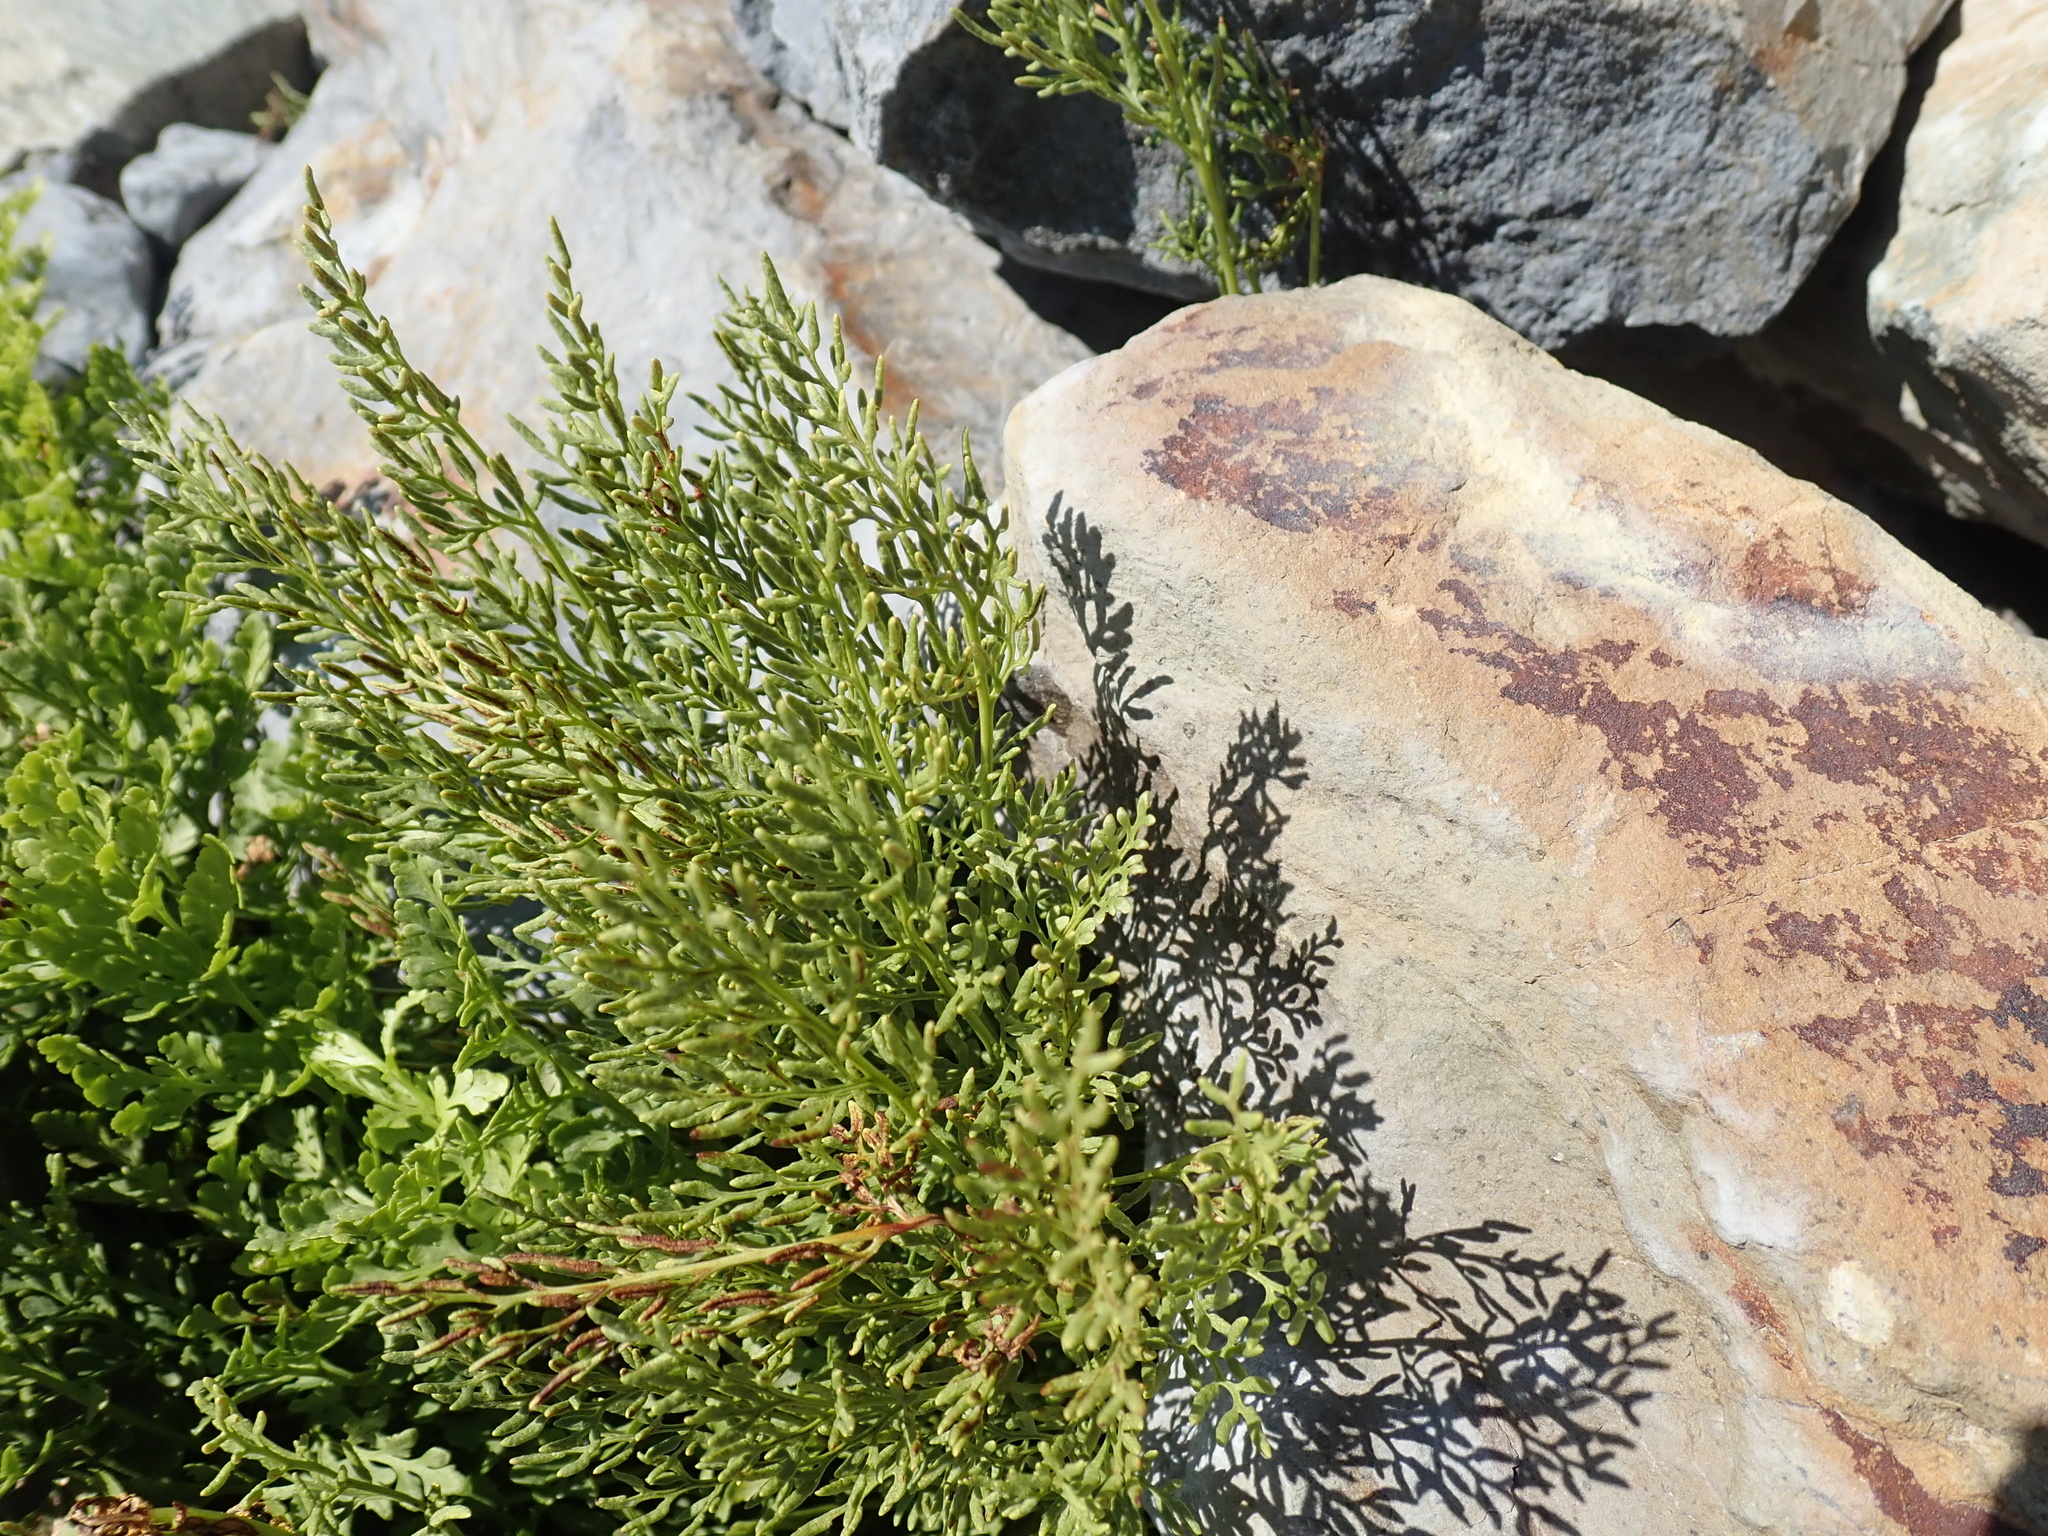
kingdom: Plantae
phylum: Tracheophyta
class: Polypodiopsida
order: Polypodiales
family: Pteridaceae
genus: Cryptogramma
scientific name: Cryptogramma cascadensis
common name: Cascade parsley fern
